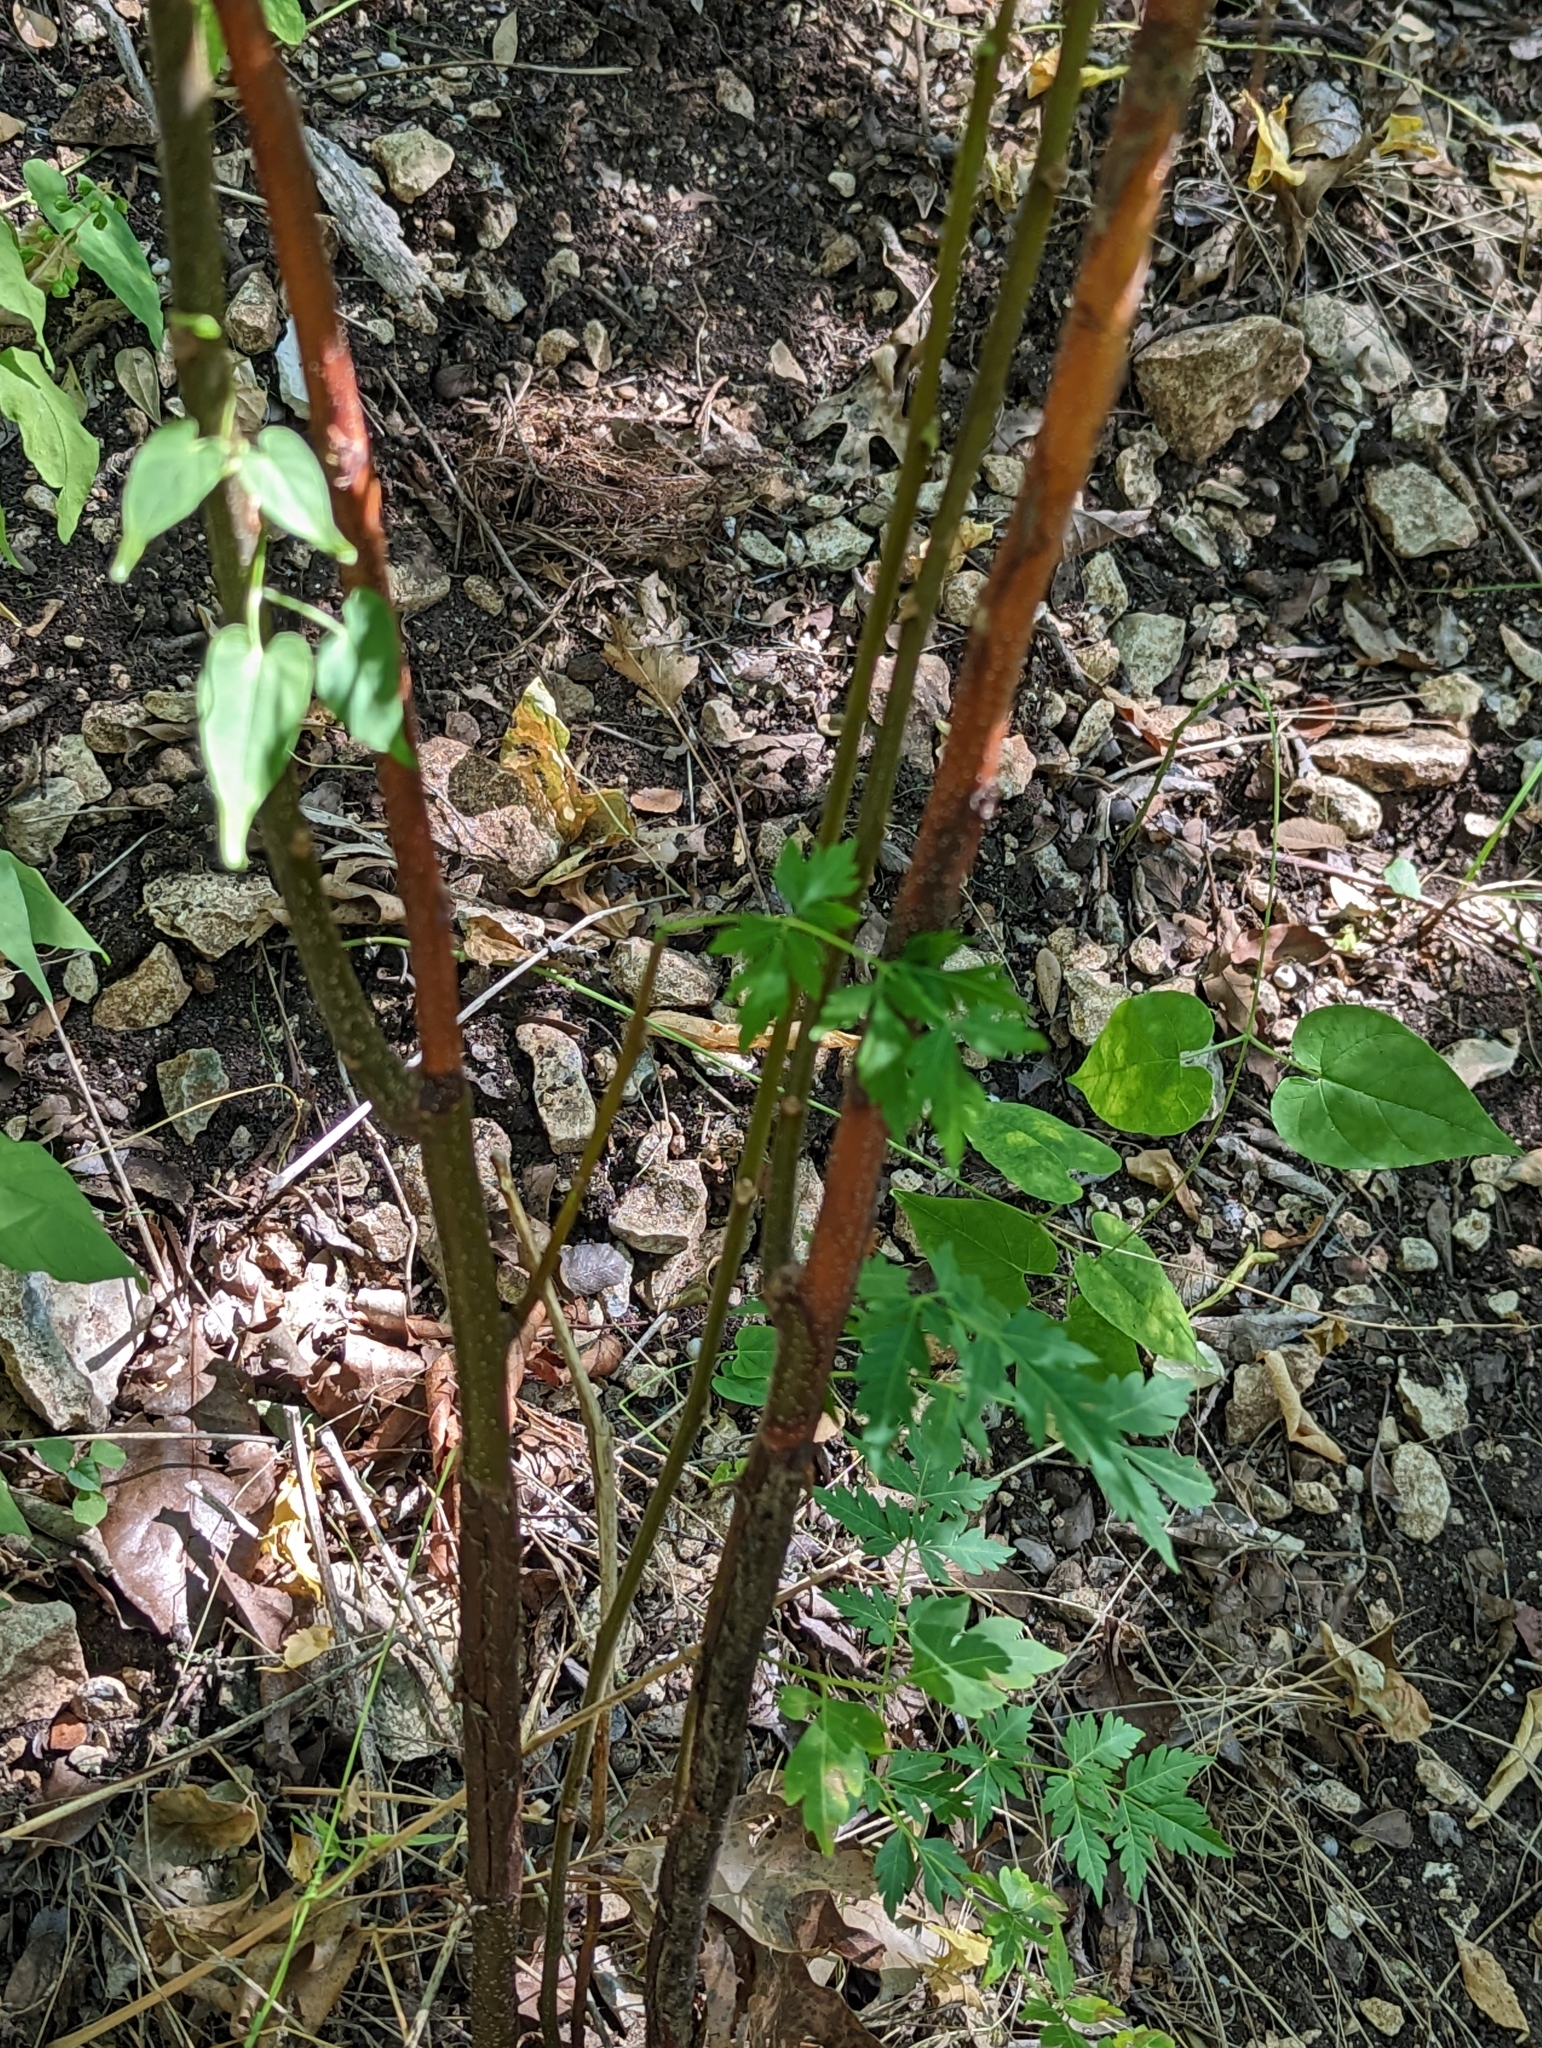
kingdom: Plantae
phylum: Tracheophyta
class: Magnoliopsida
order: Sapindales
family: Meliaceae
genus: Melia
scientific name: Melia azedarach
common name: Chinaberrytree
